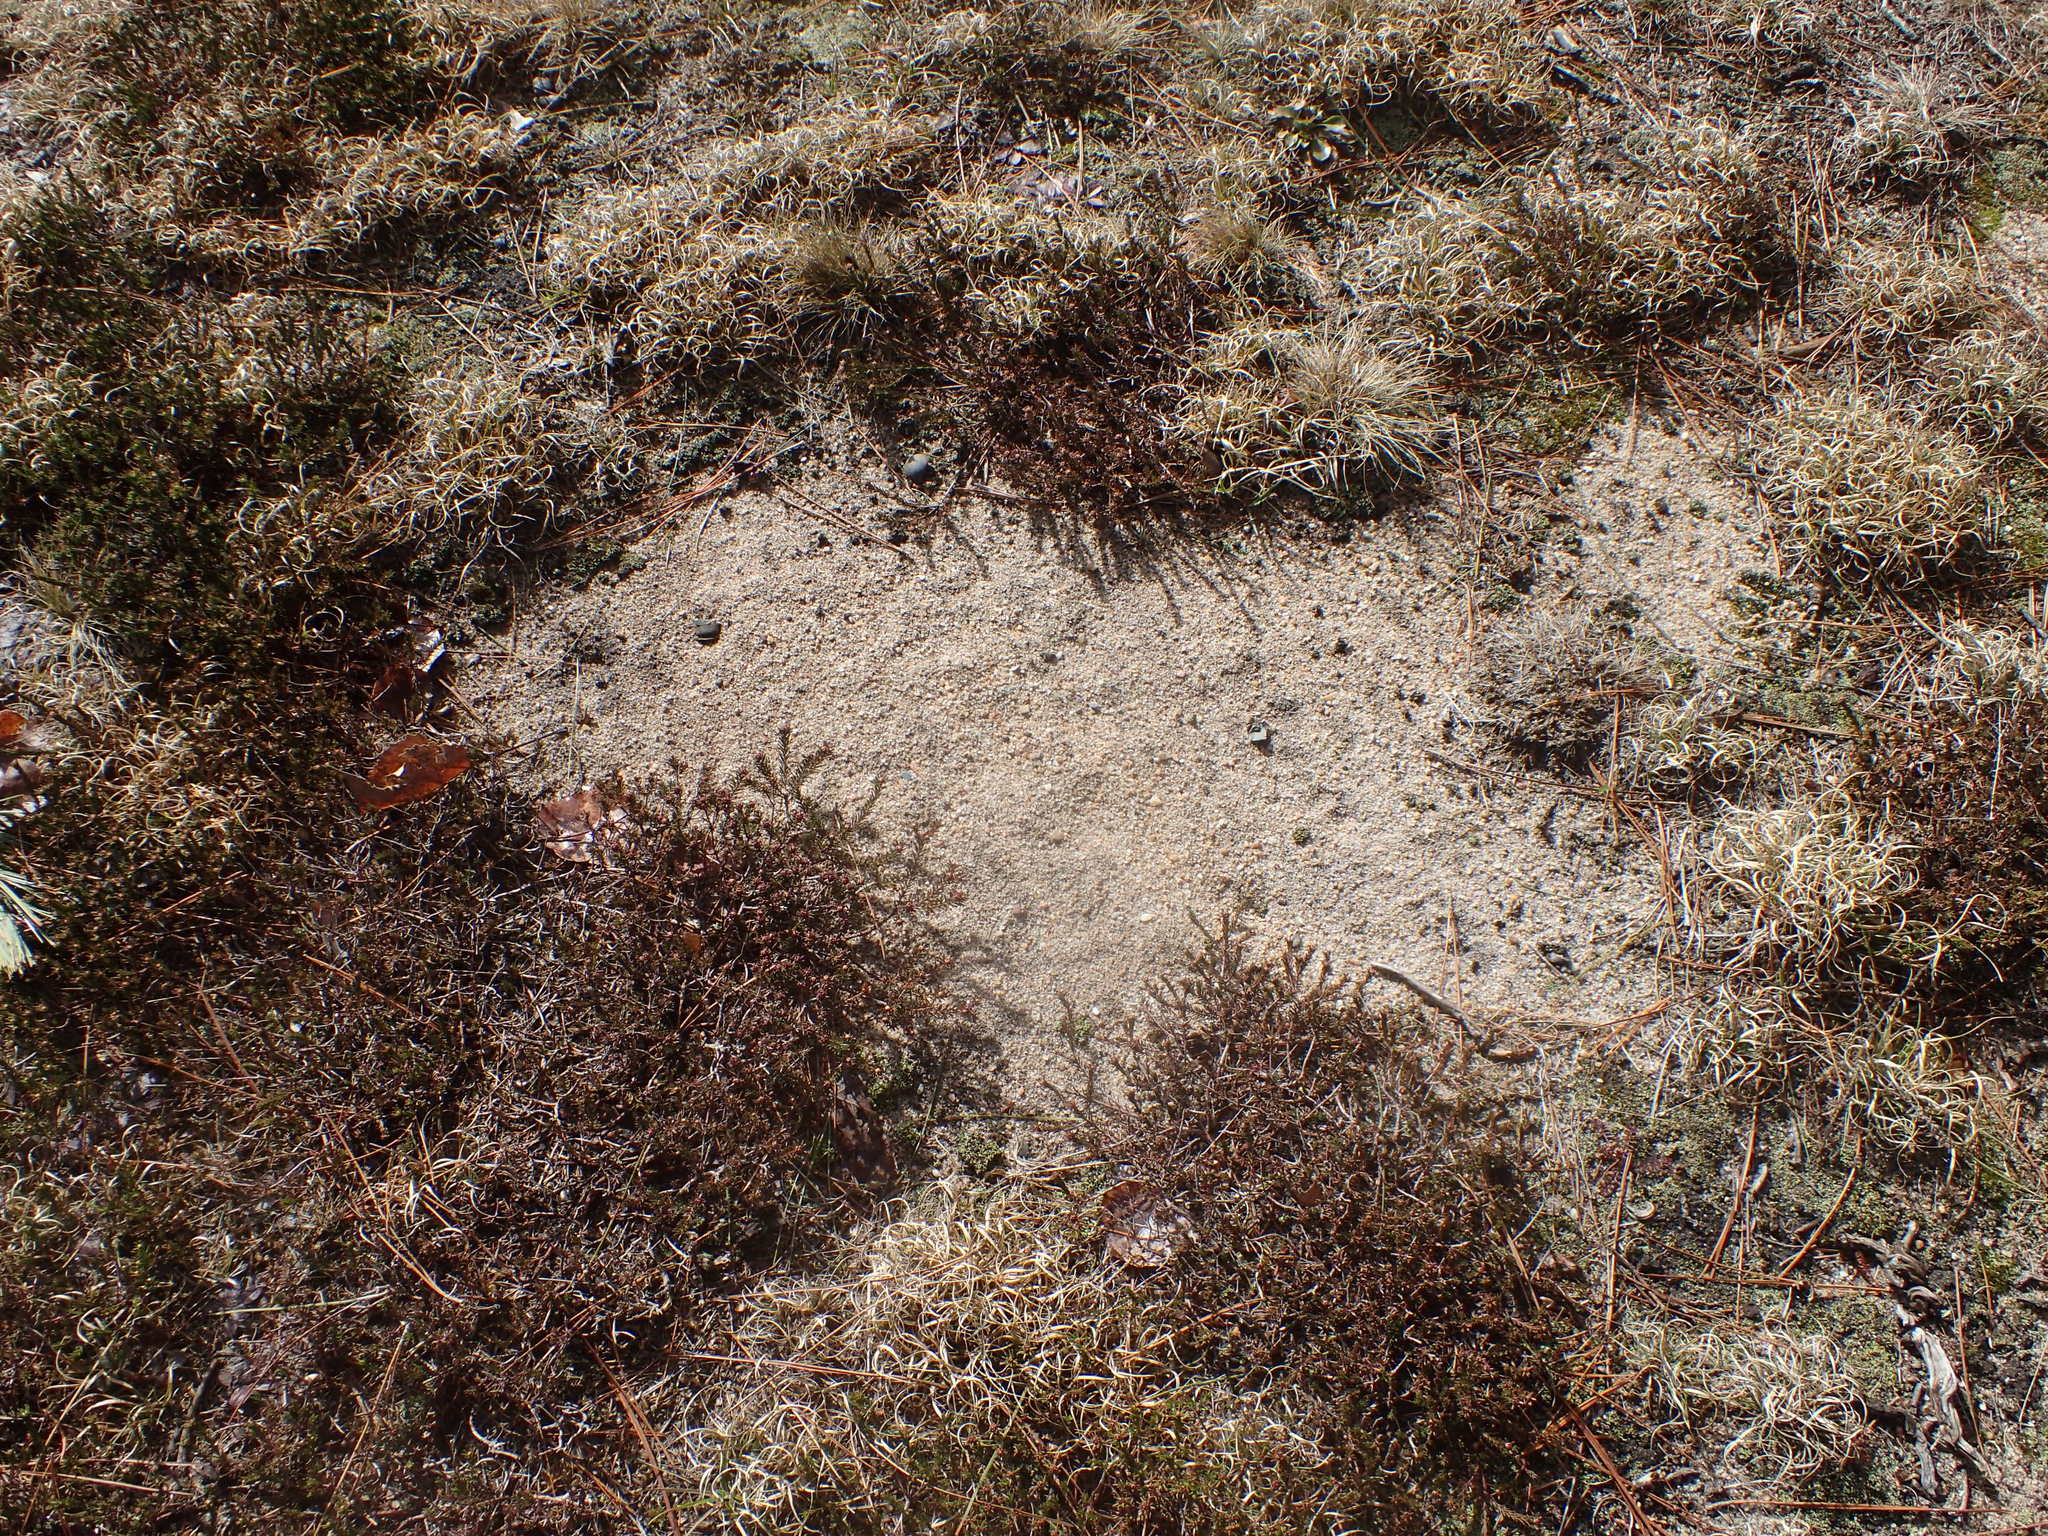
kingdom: Plantae
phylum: Tracheophyta
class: Magnoliopsida
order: Ericales
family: Ericaceae
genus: Corema
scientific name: Corema conradii
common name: Broom-crowberry
